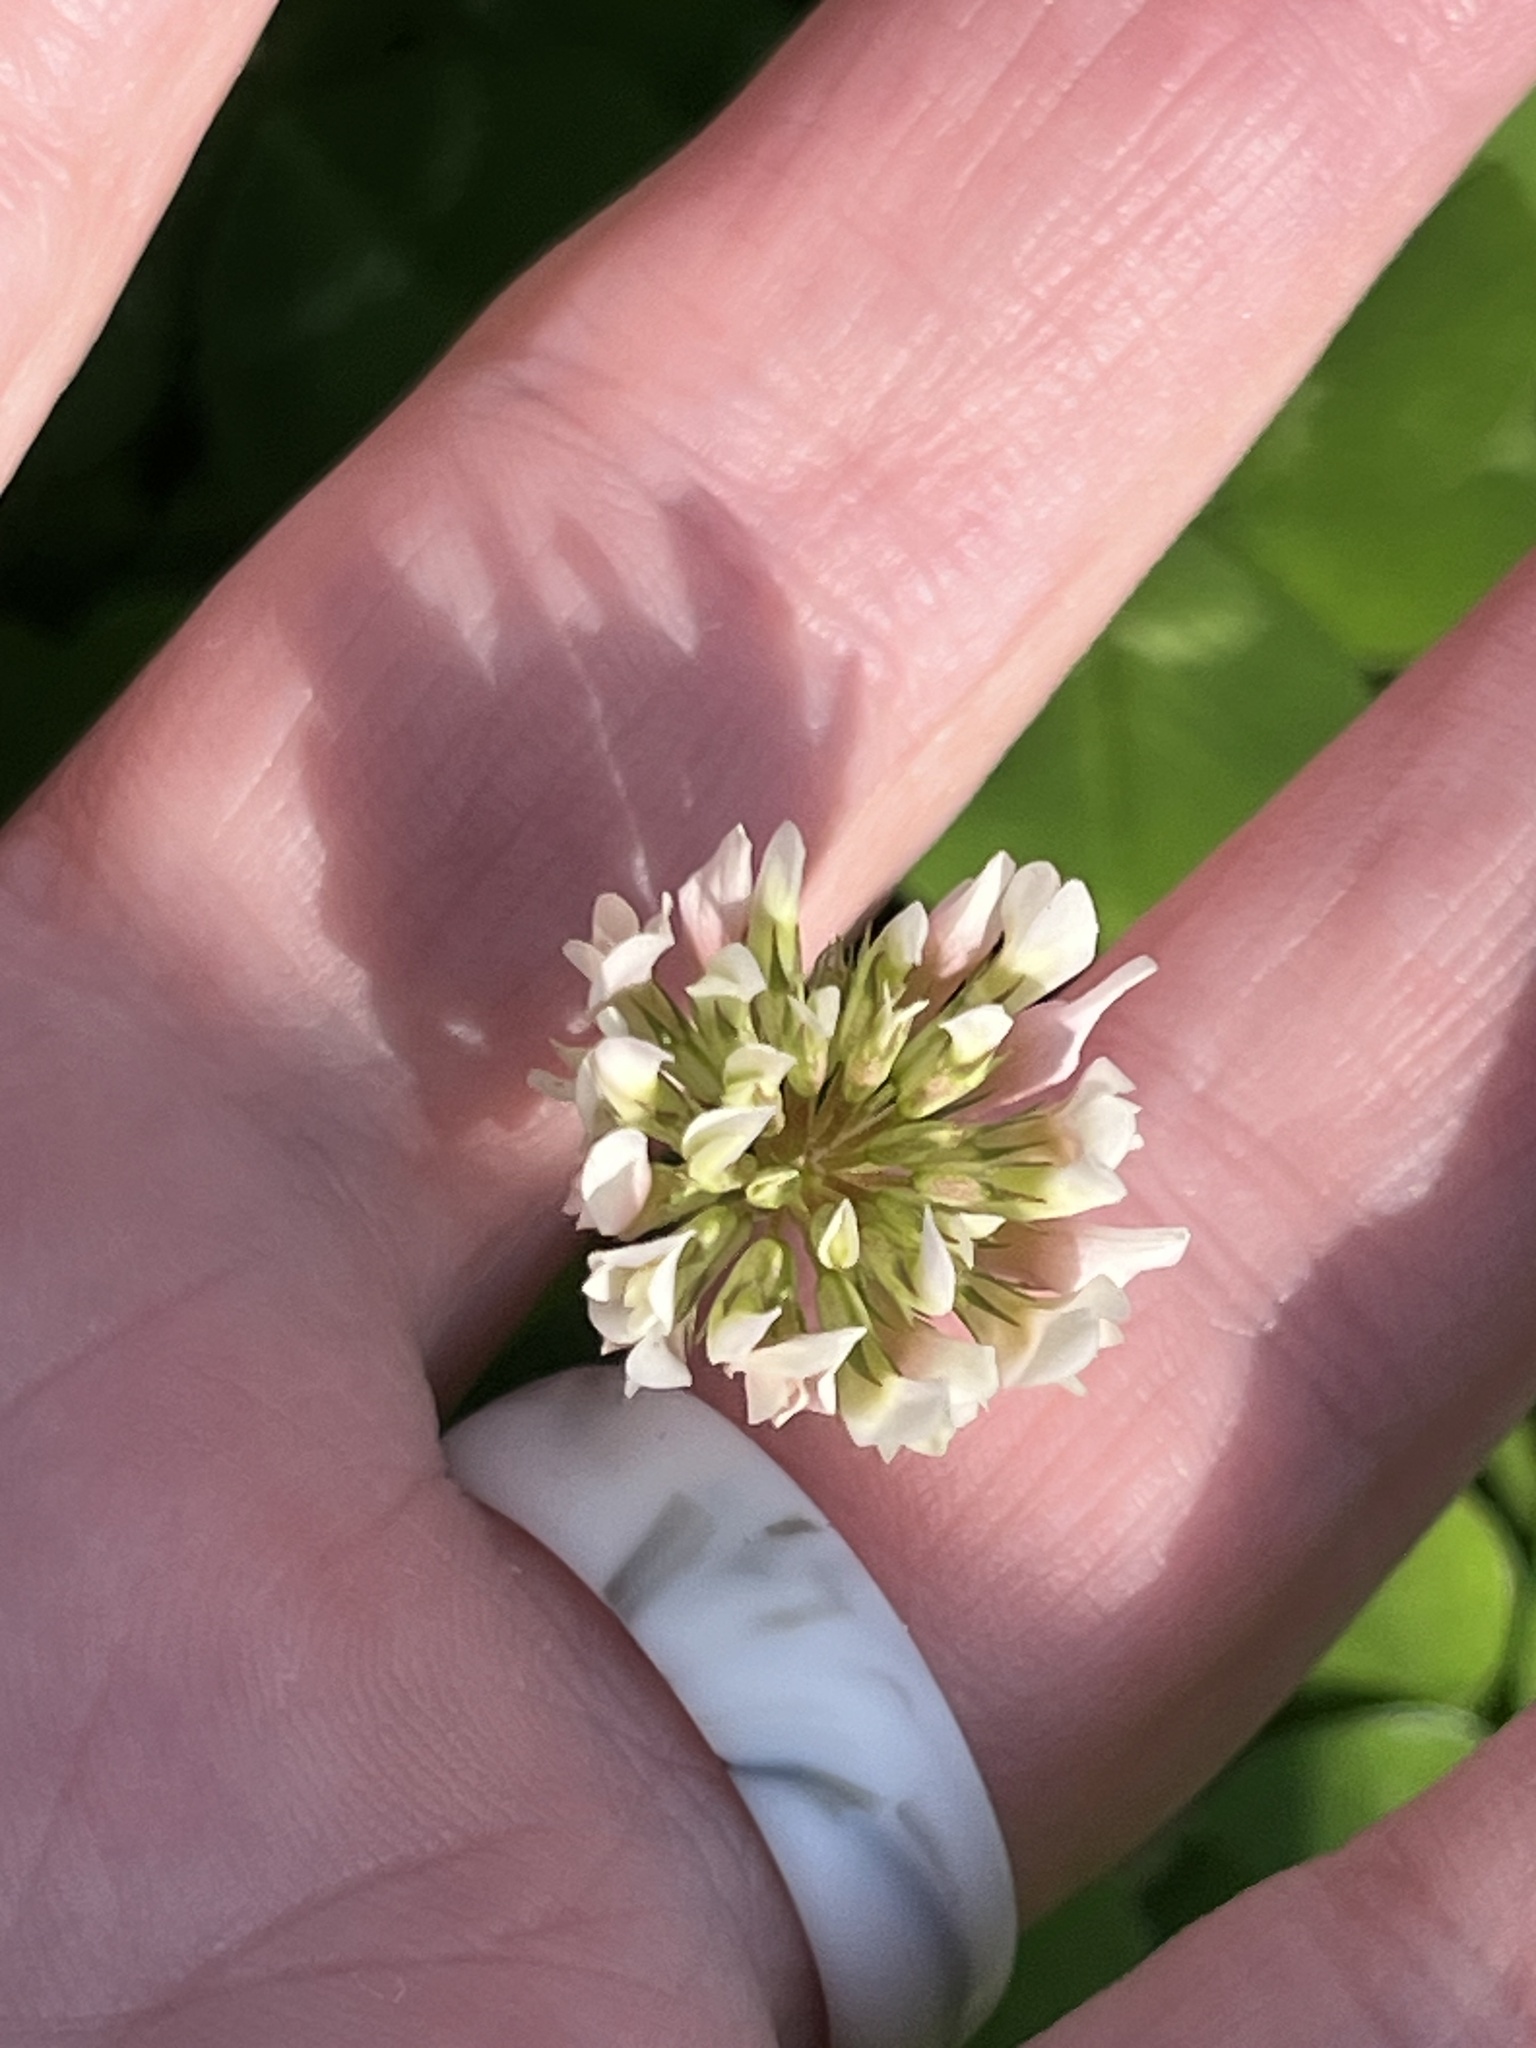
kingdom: Plantae
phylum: Tracheophyta
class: Magnoliopsida
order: Fabales
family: Fabaceae
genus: Trifolium
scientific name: Trifolium repens
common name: White clover
